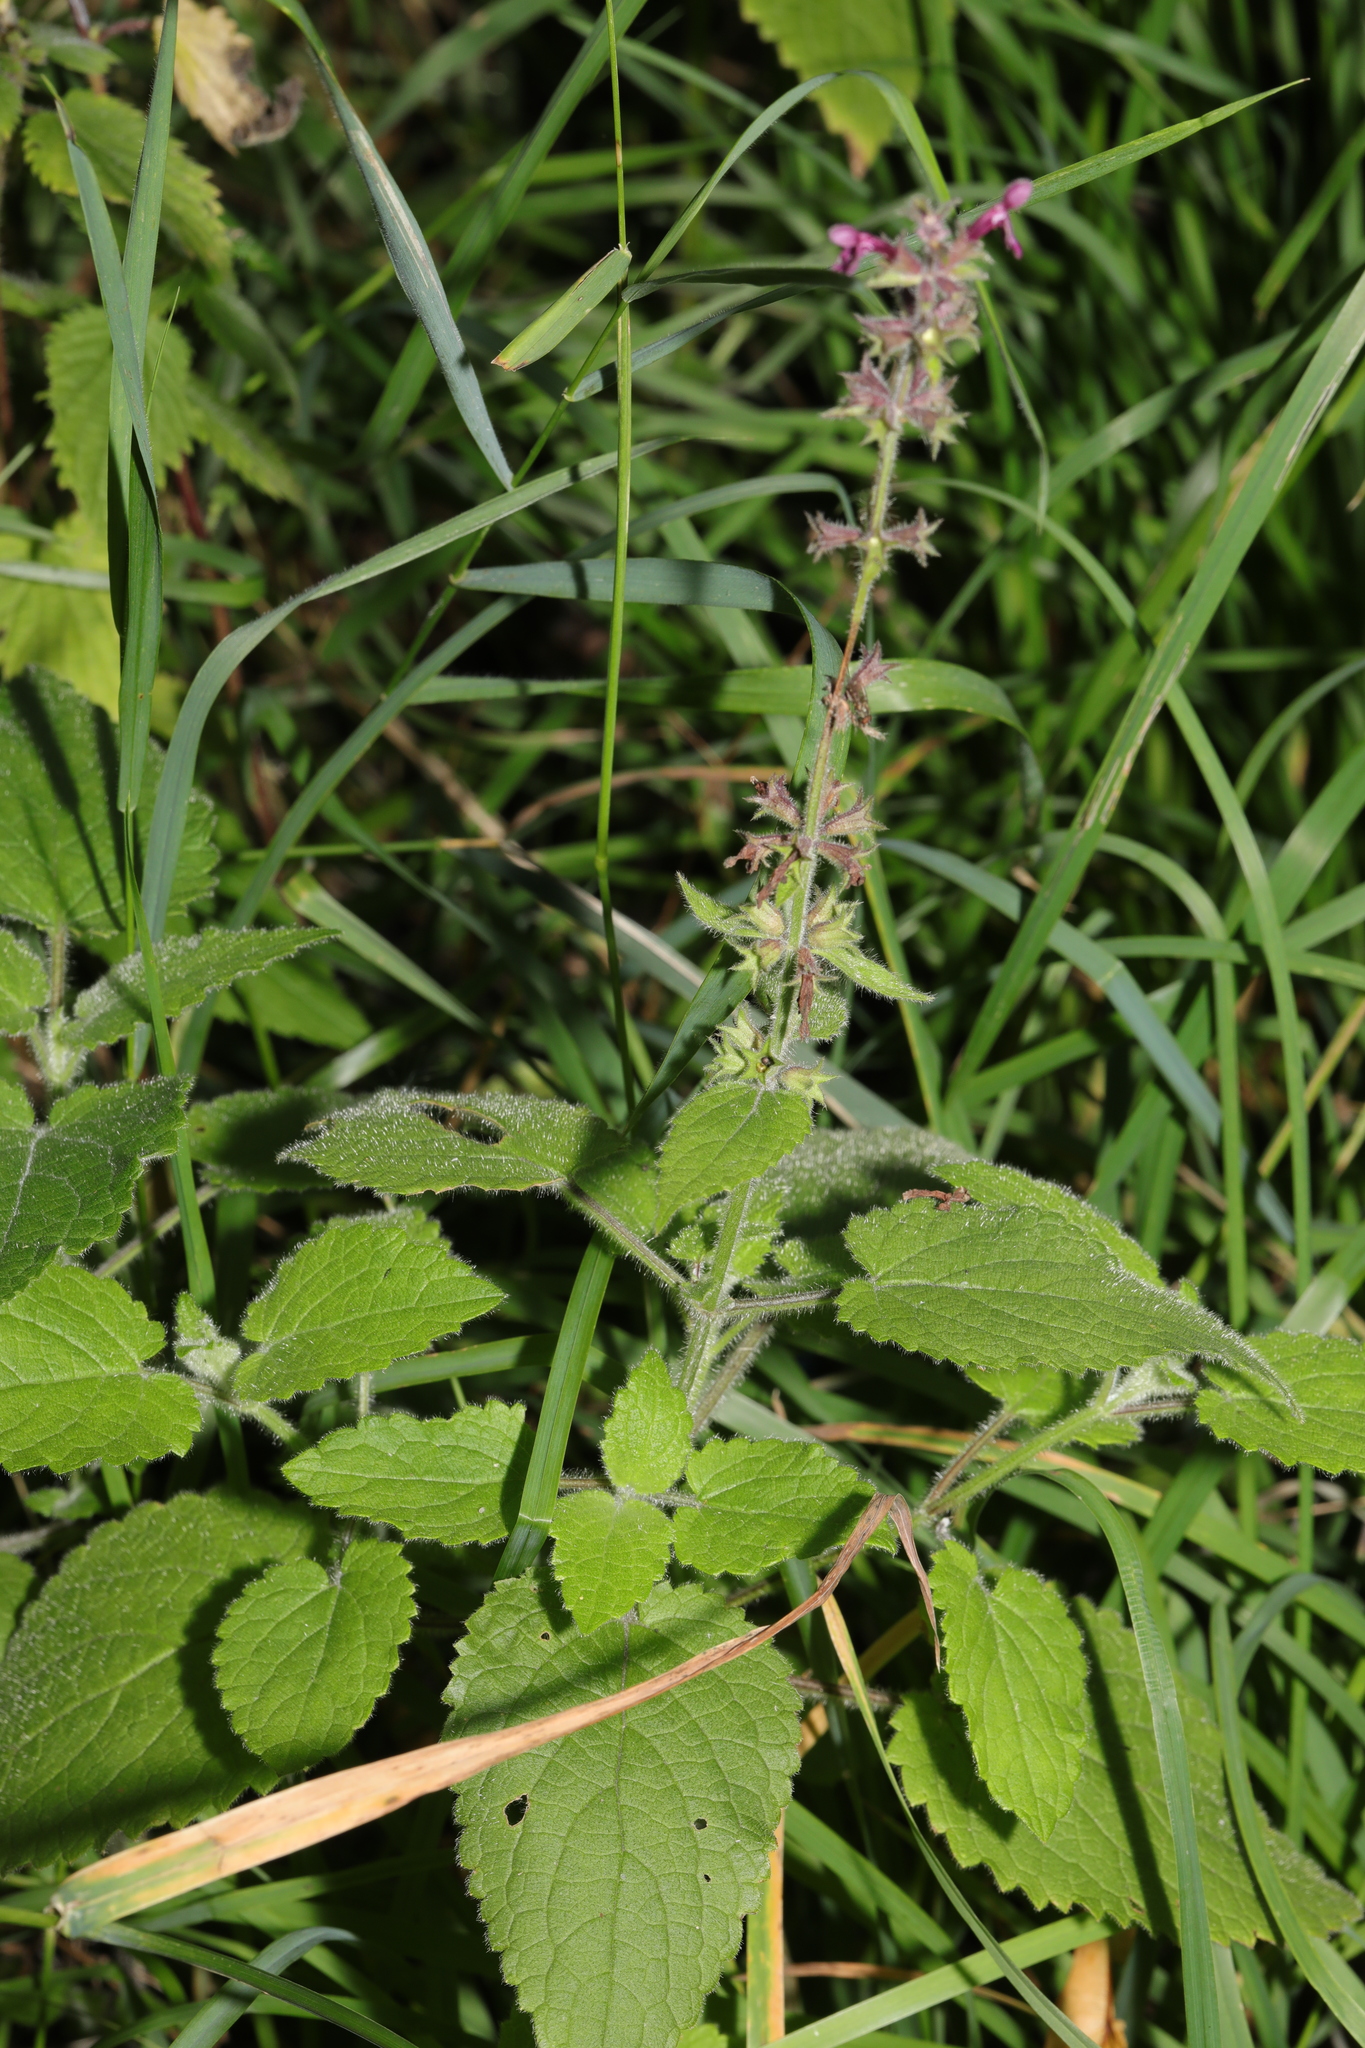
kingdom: Plantae
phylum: Tracheophyta
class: Magnoliopsida
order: Lamiales
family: Lamiaceae
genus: Stachys
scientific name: Stachys sylvatica
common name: Hedge woundwort
